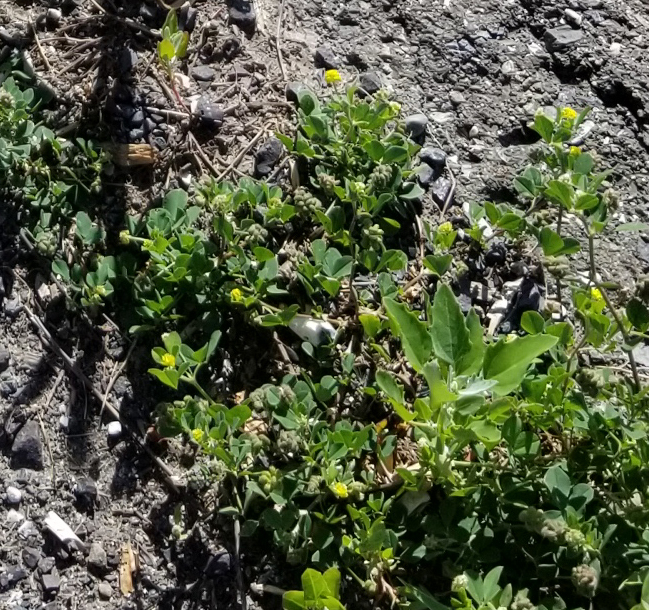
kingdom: Plantae
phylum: Tracheophyta
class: Magnoliopsida
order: Fabales
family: Fabaceae
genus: Medicago
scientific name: Medicago lupulina
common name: Black medick
